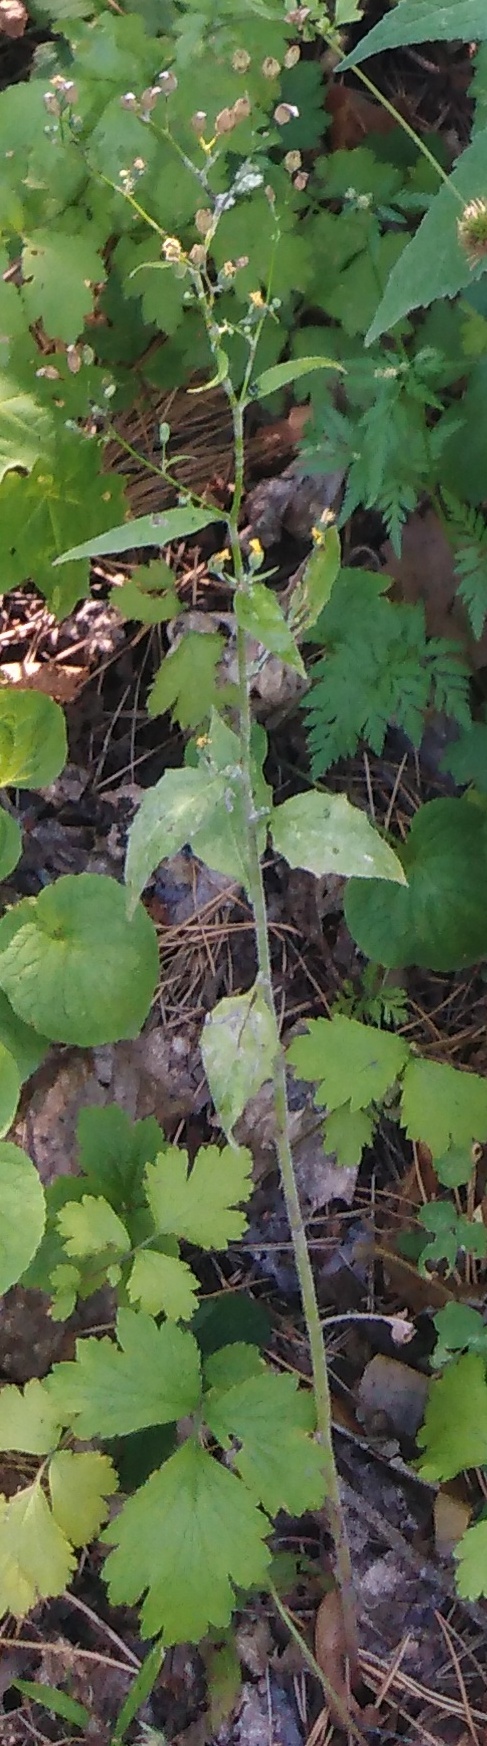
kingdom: Plantae
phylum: Tracheophyta
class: Magnoliopsida
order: Asterales
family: Asteraceae
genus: Lapsana
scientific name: Lapsana communis
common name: Nipplewort
